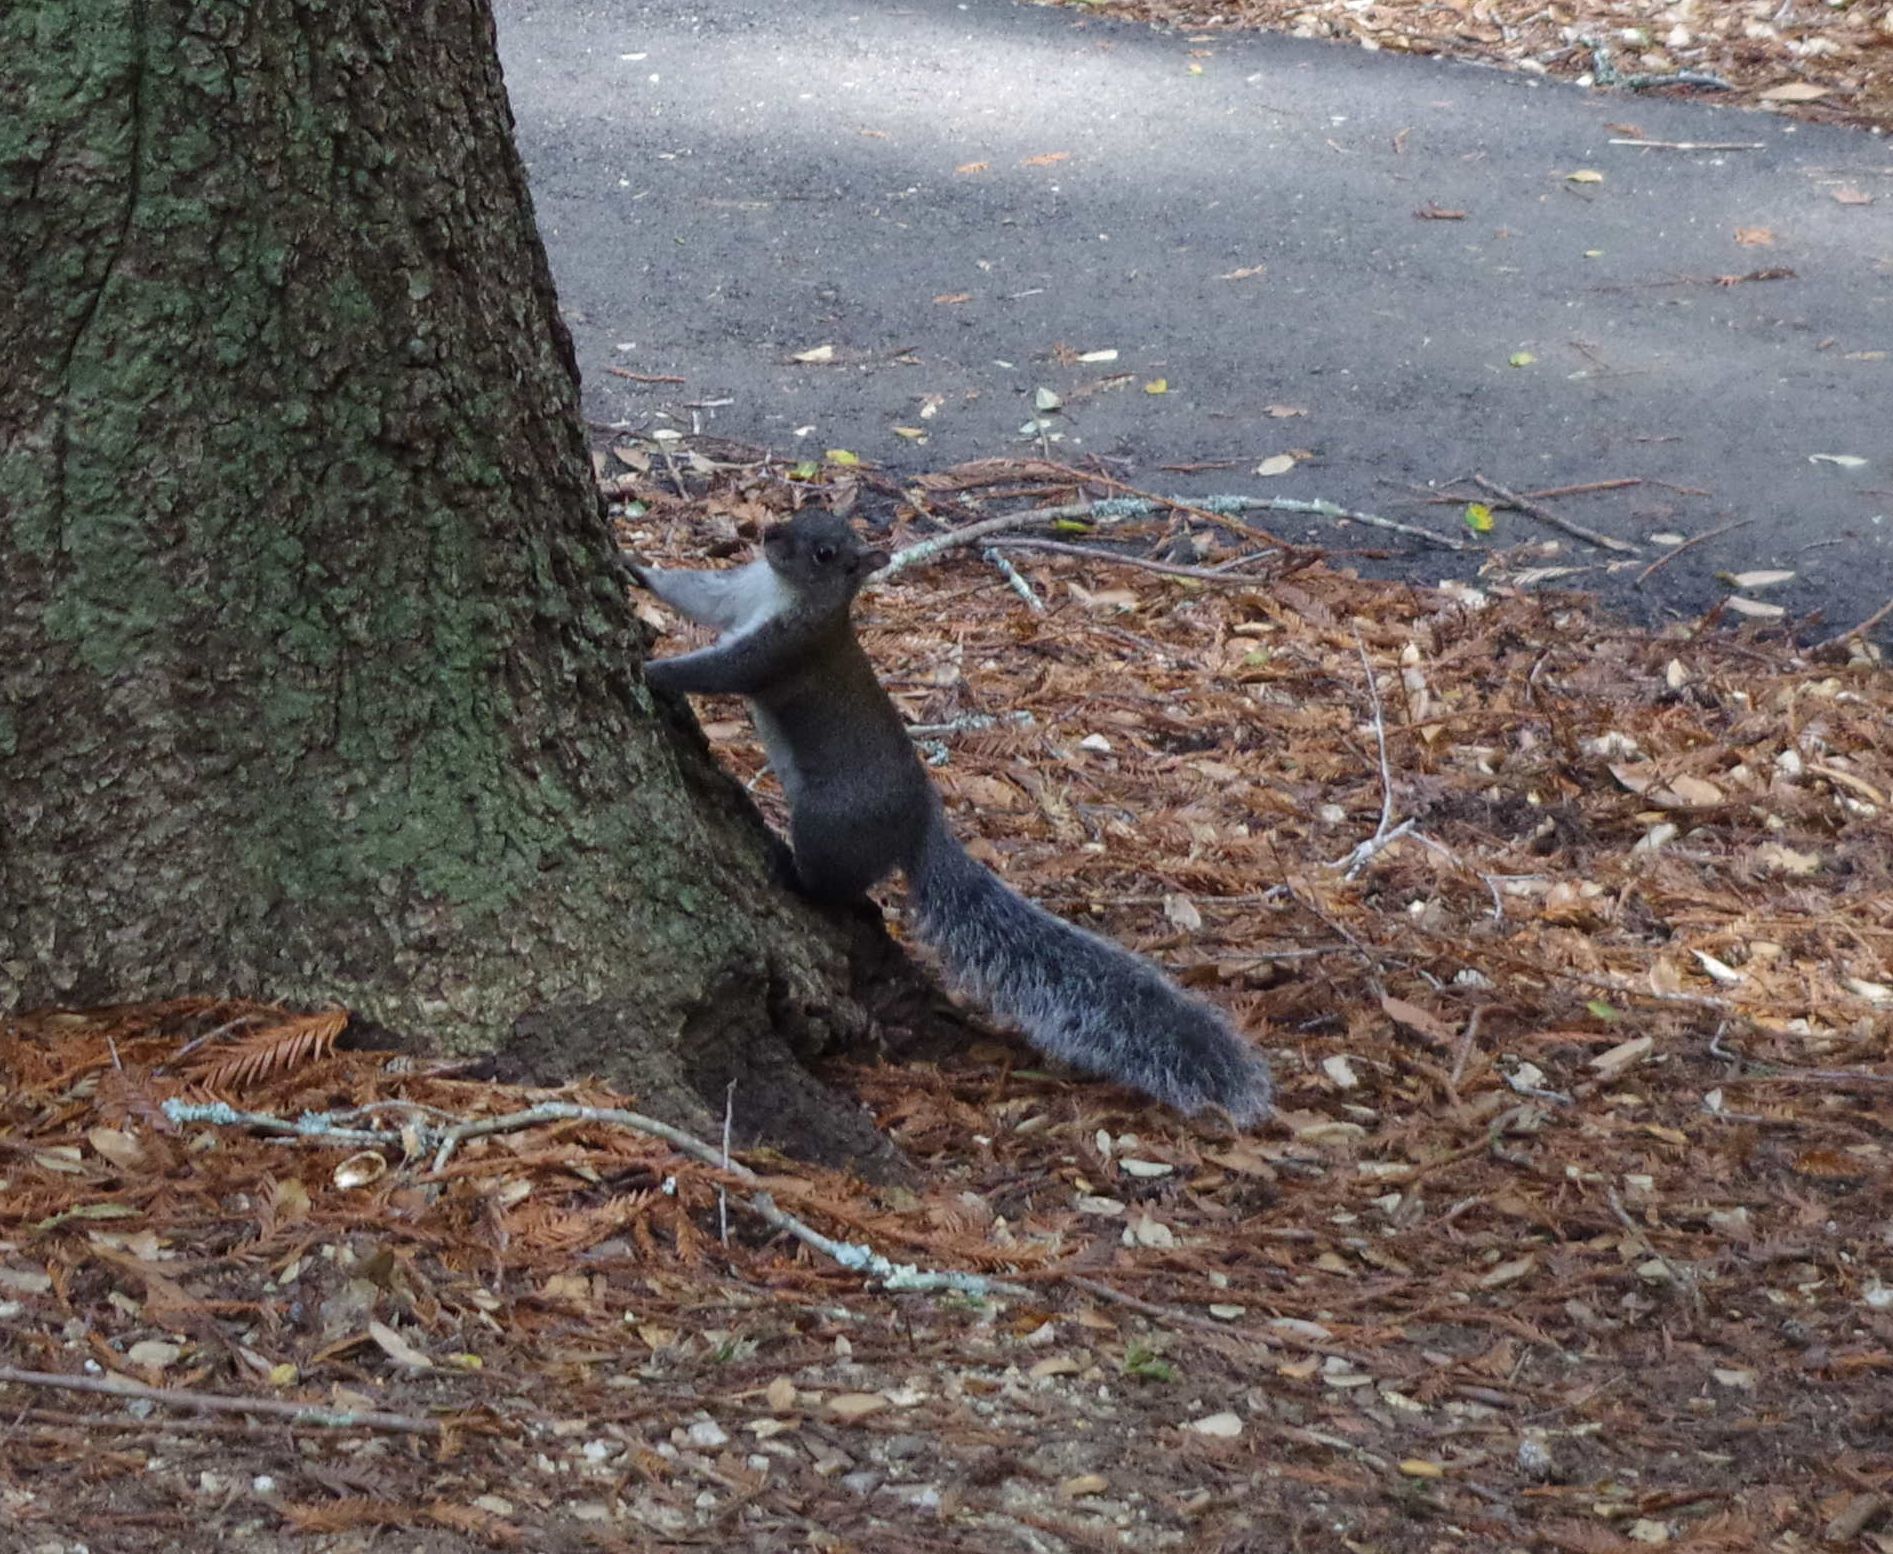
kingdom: Animalia
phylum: Chordata
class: Mammalia
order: Rodentia
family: Sciuridae
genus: Sciurus
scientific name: Sciurus griseus
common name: Western gray squirrel
